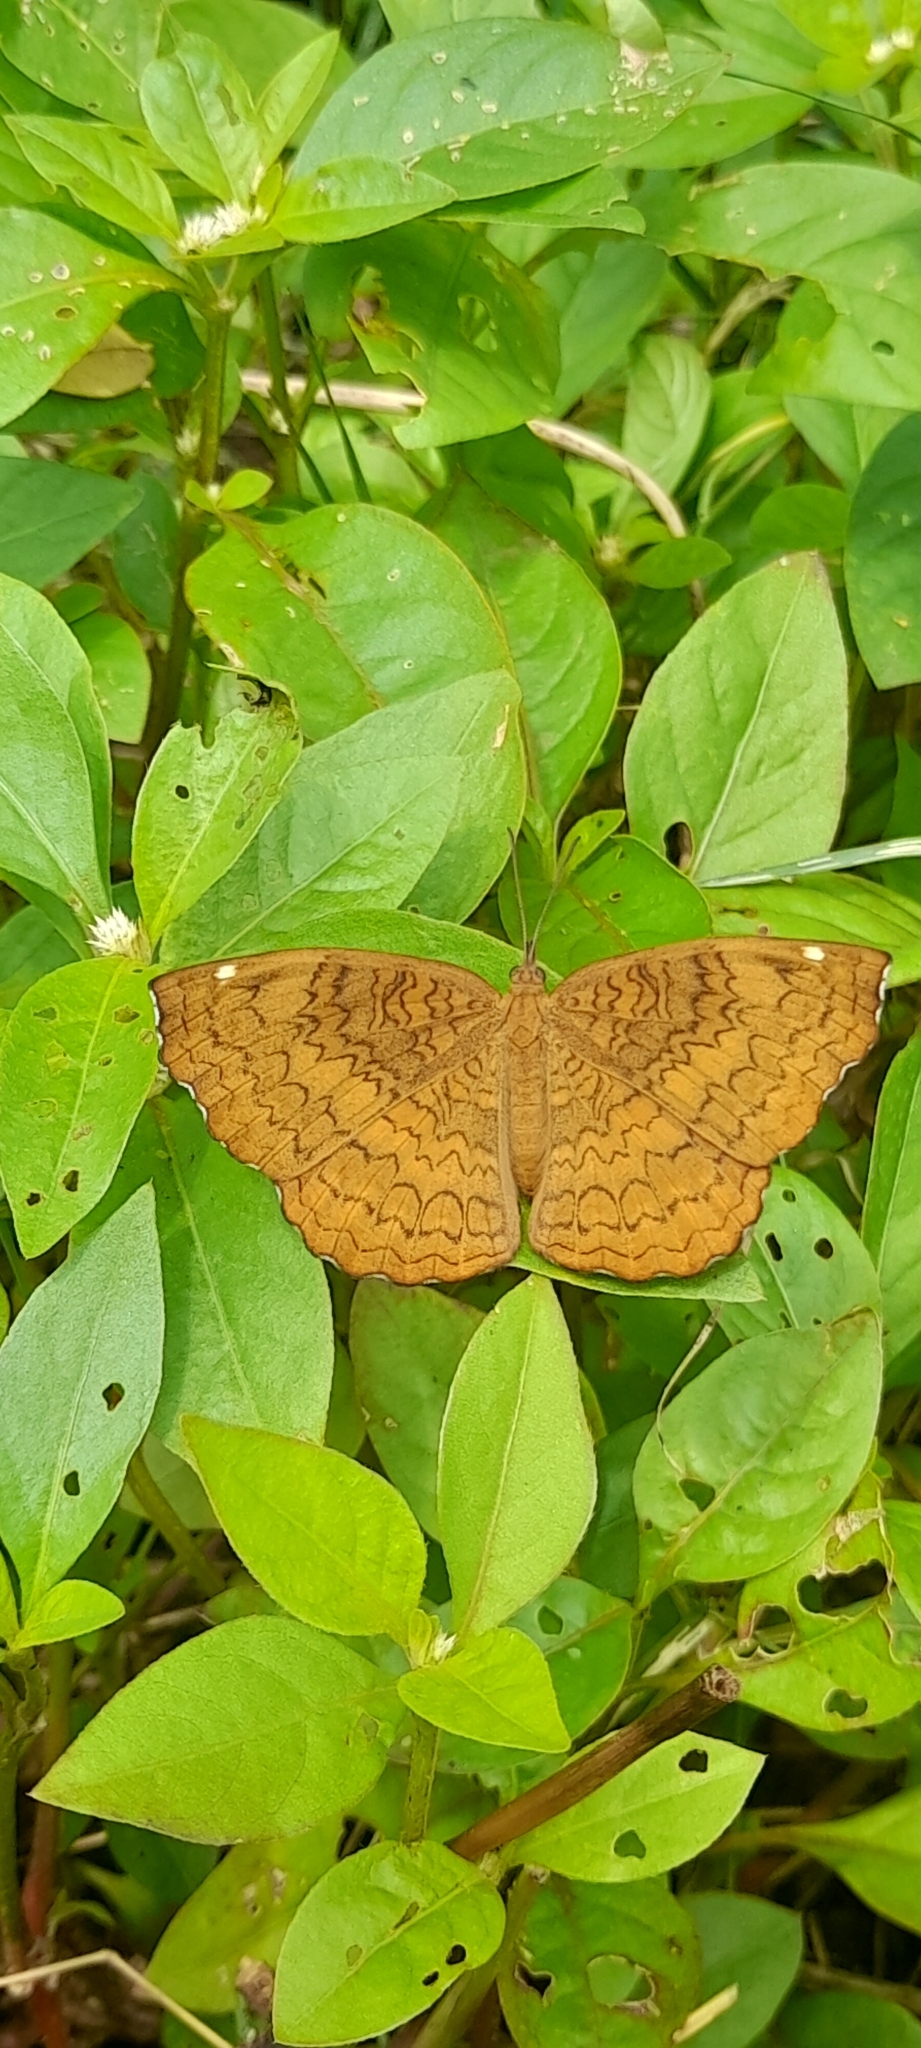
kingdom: Animalia
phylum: Arthropoda
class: Insecta
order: Lepidoptera
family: Nymphalidae
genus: Ariadne
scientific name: Ariadne merione
